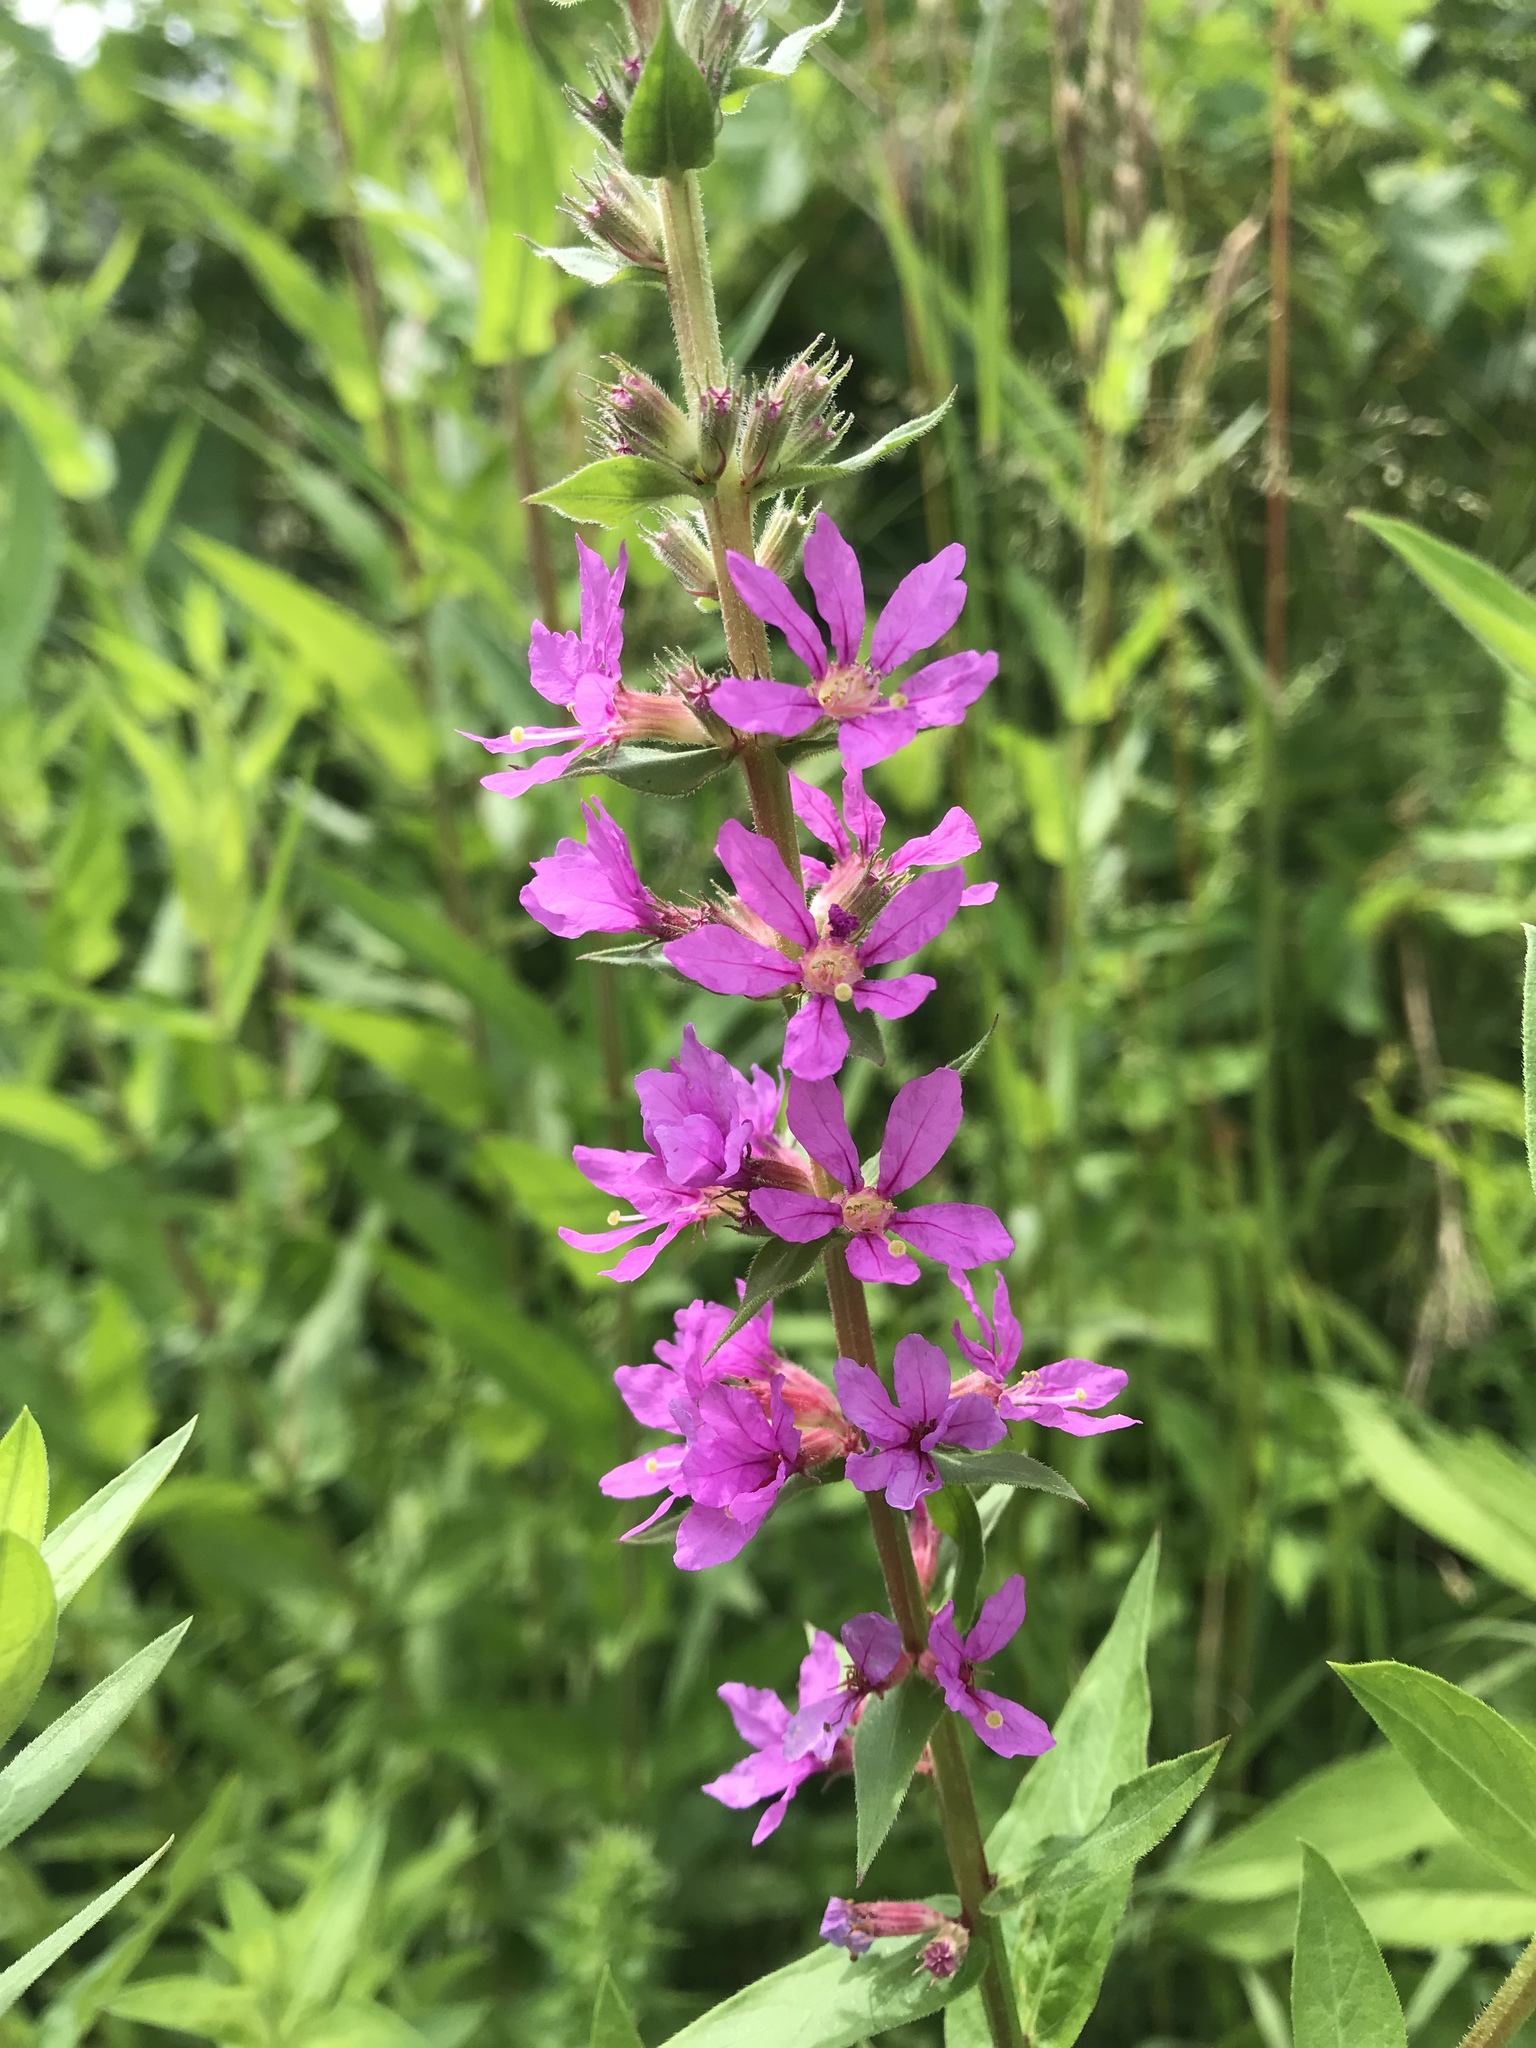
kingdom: Plantae
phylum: Tracheophyta
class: Magnoliopsida
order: Myrtales
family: Lythraceae
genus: Lythrum
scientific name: Lythrum salicaria
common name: Purple loosestrife
